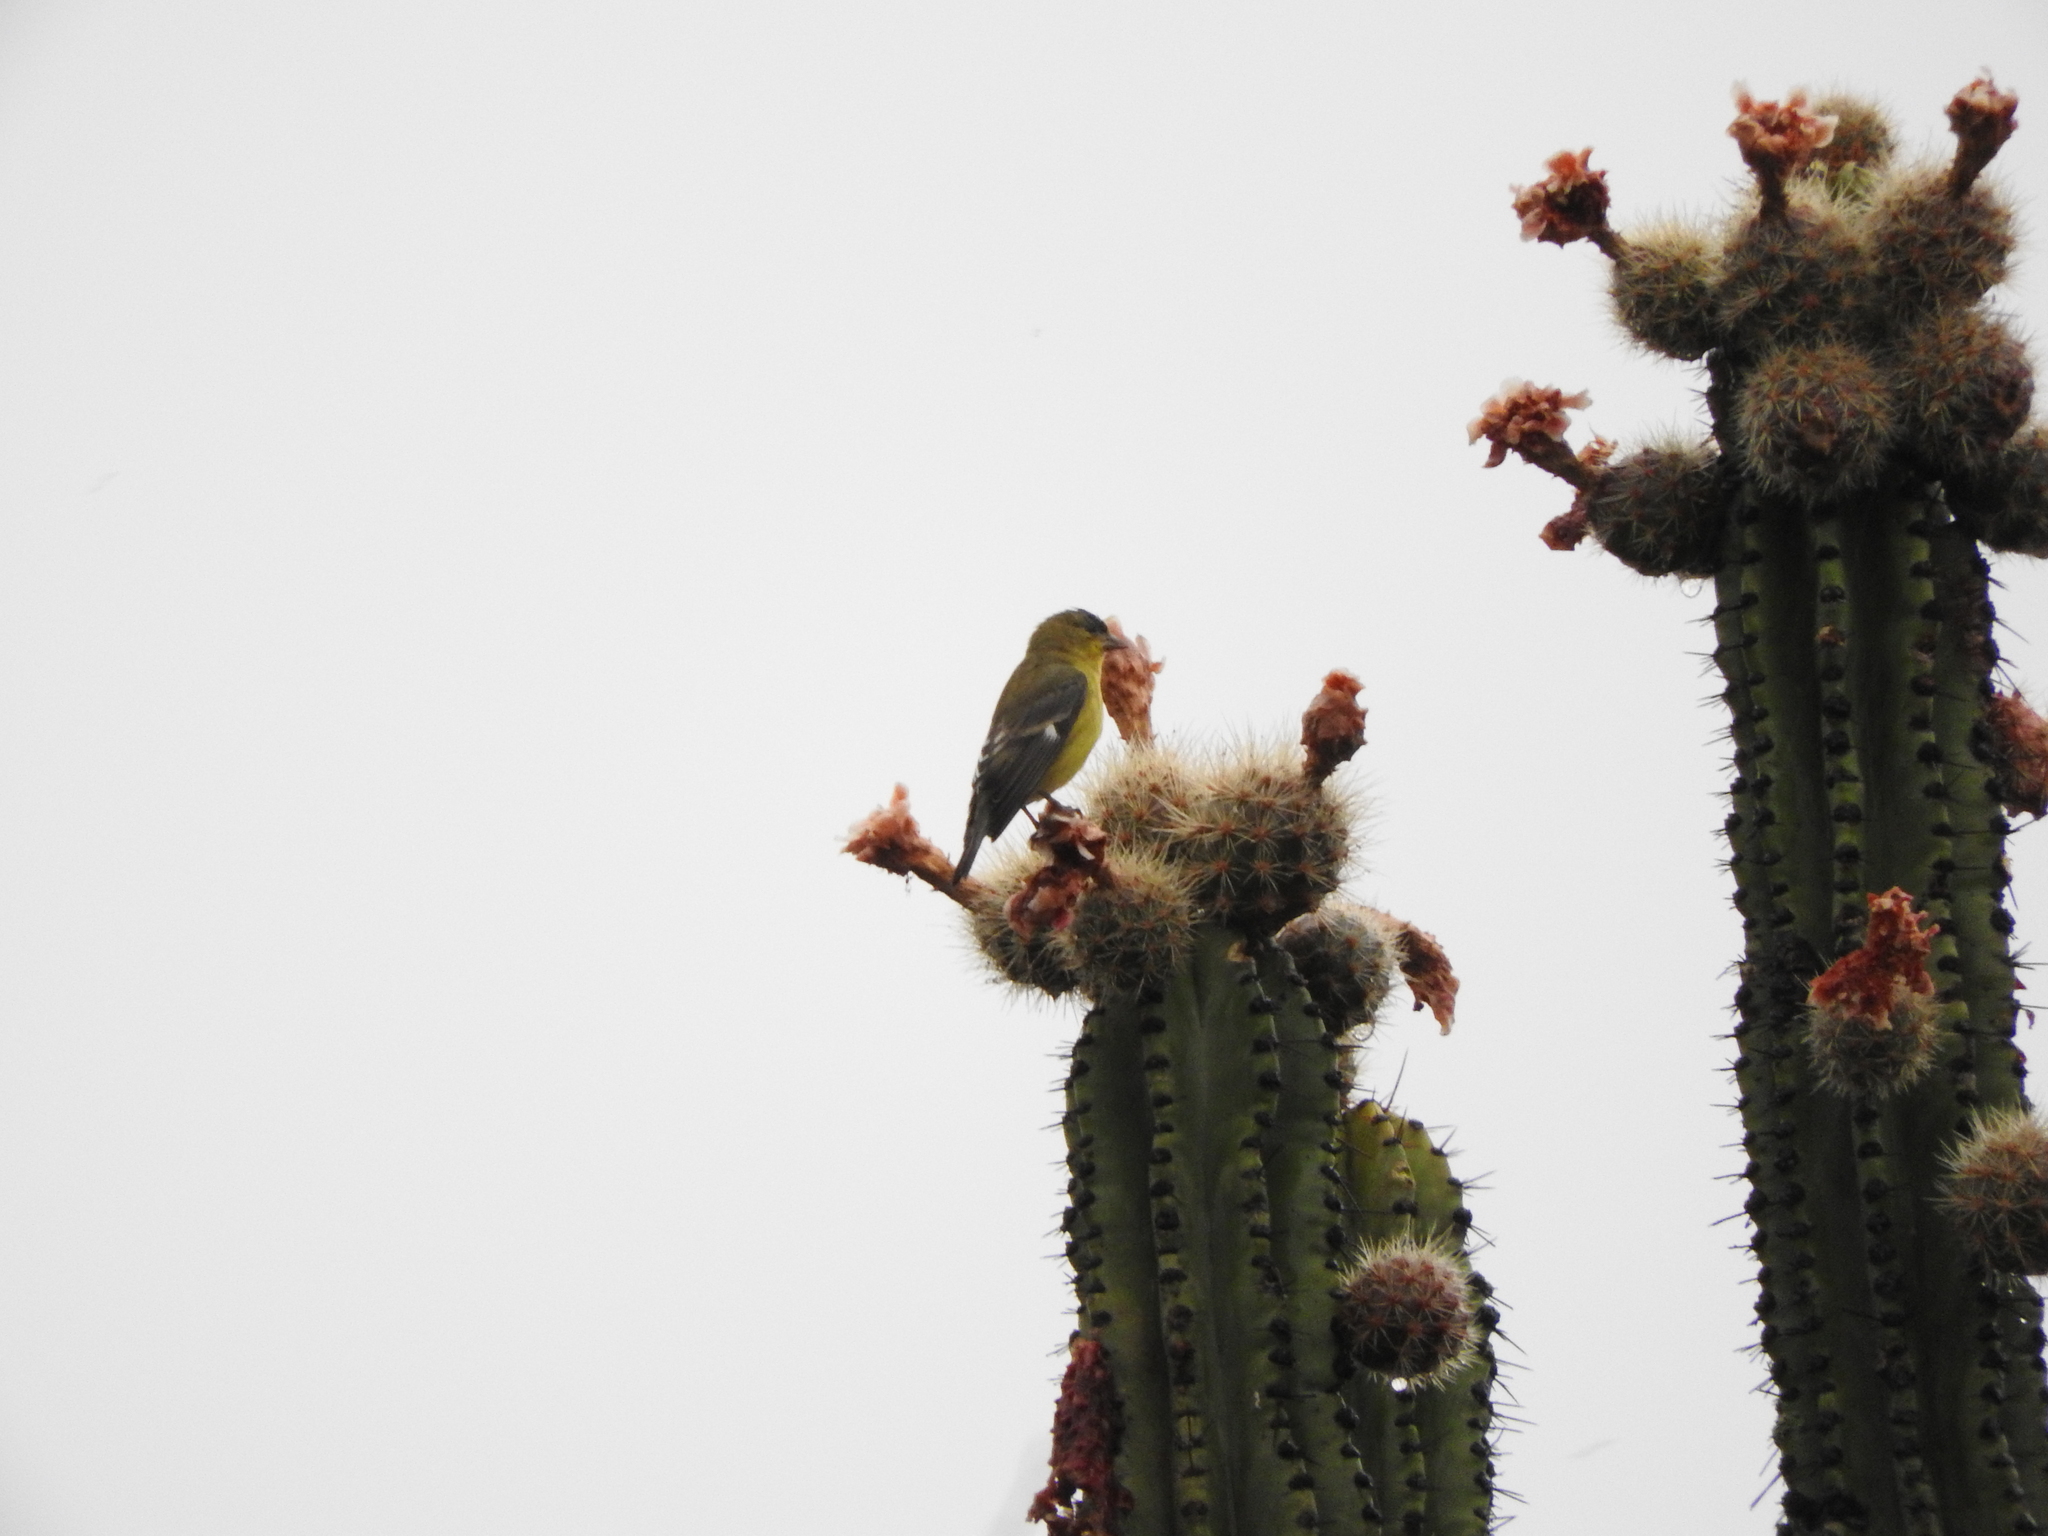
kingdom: Animalia
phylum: Chordata
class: Aves
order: Passeriformes
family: Fringillidae
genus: Spinus
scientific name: Spinus psaltria
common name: Lesser goldfinch
